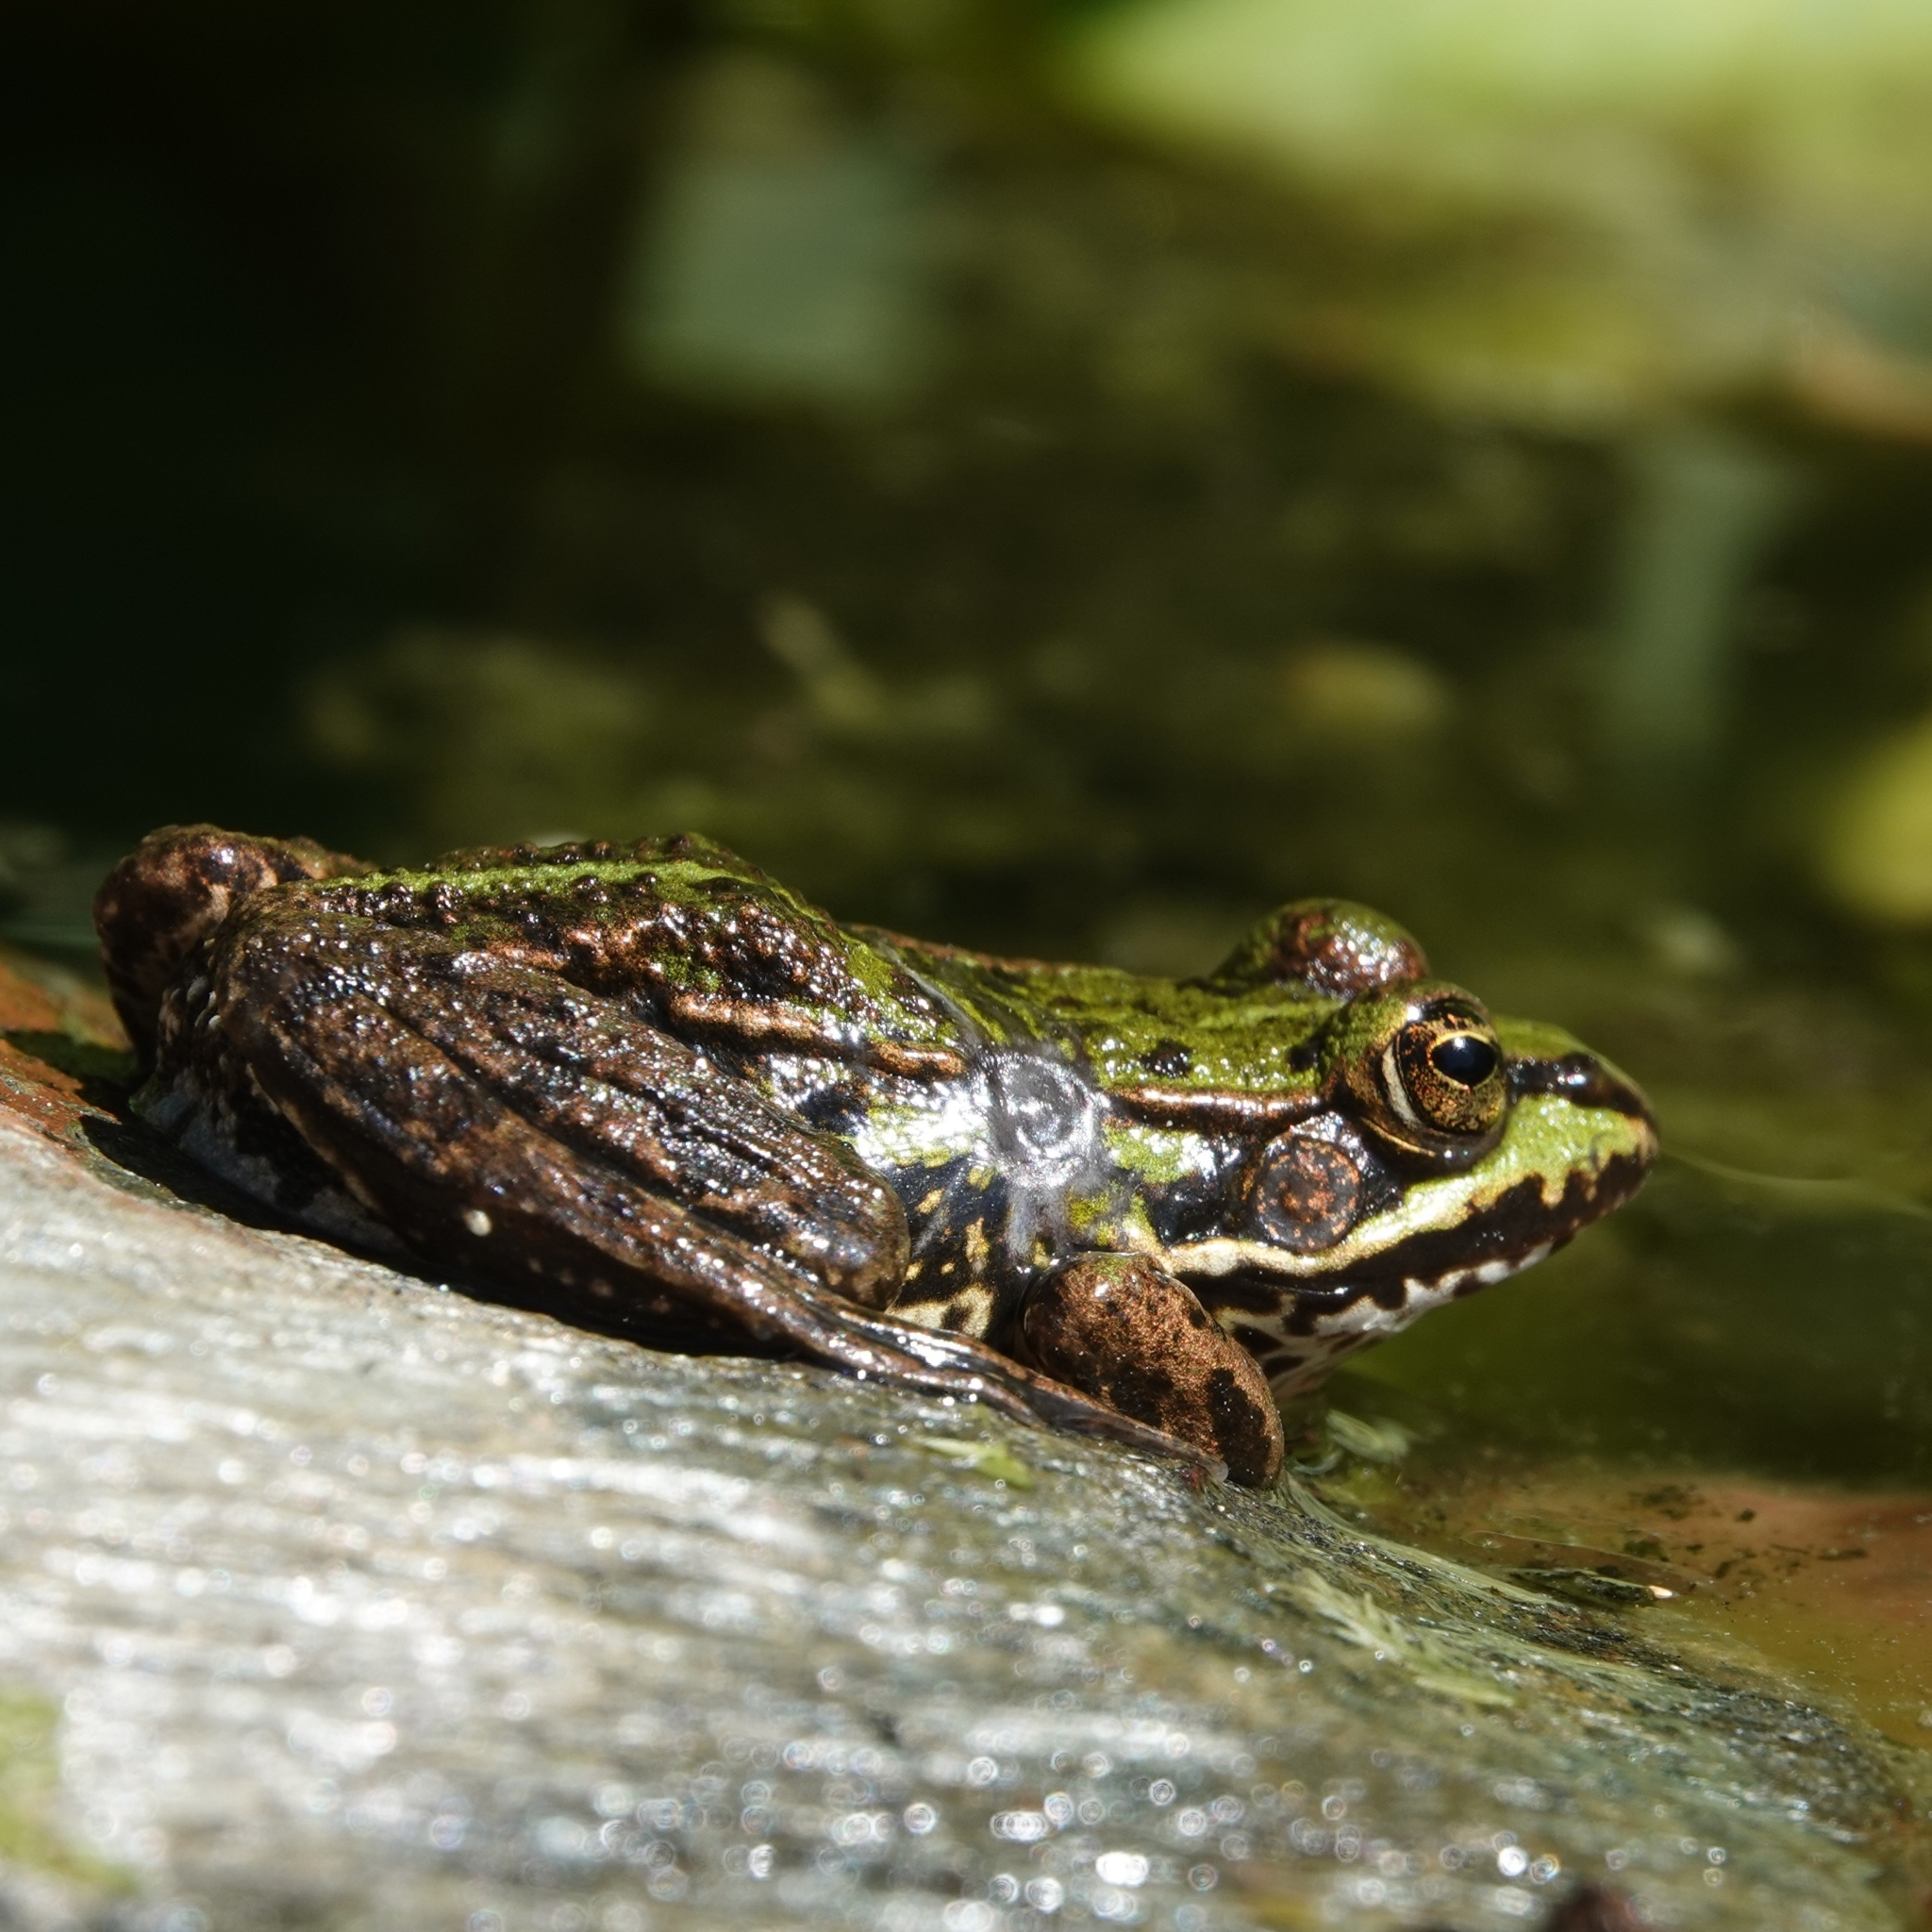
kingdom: Animalia
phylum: Chordata
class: Amphibia
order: Anura
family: Ranidae
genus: Pelophylax
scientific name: Pelophylax lessonae
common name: Pool frog
